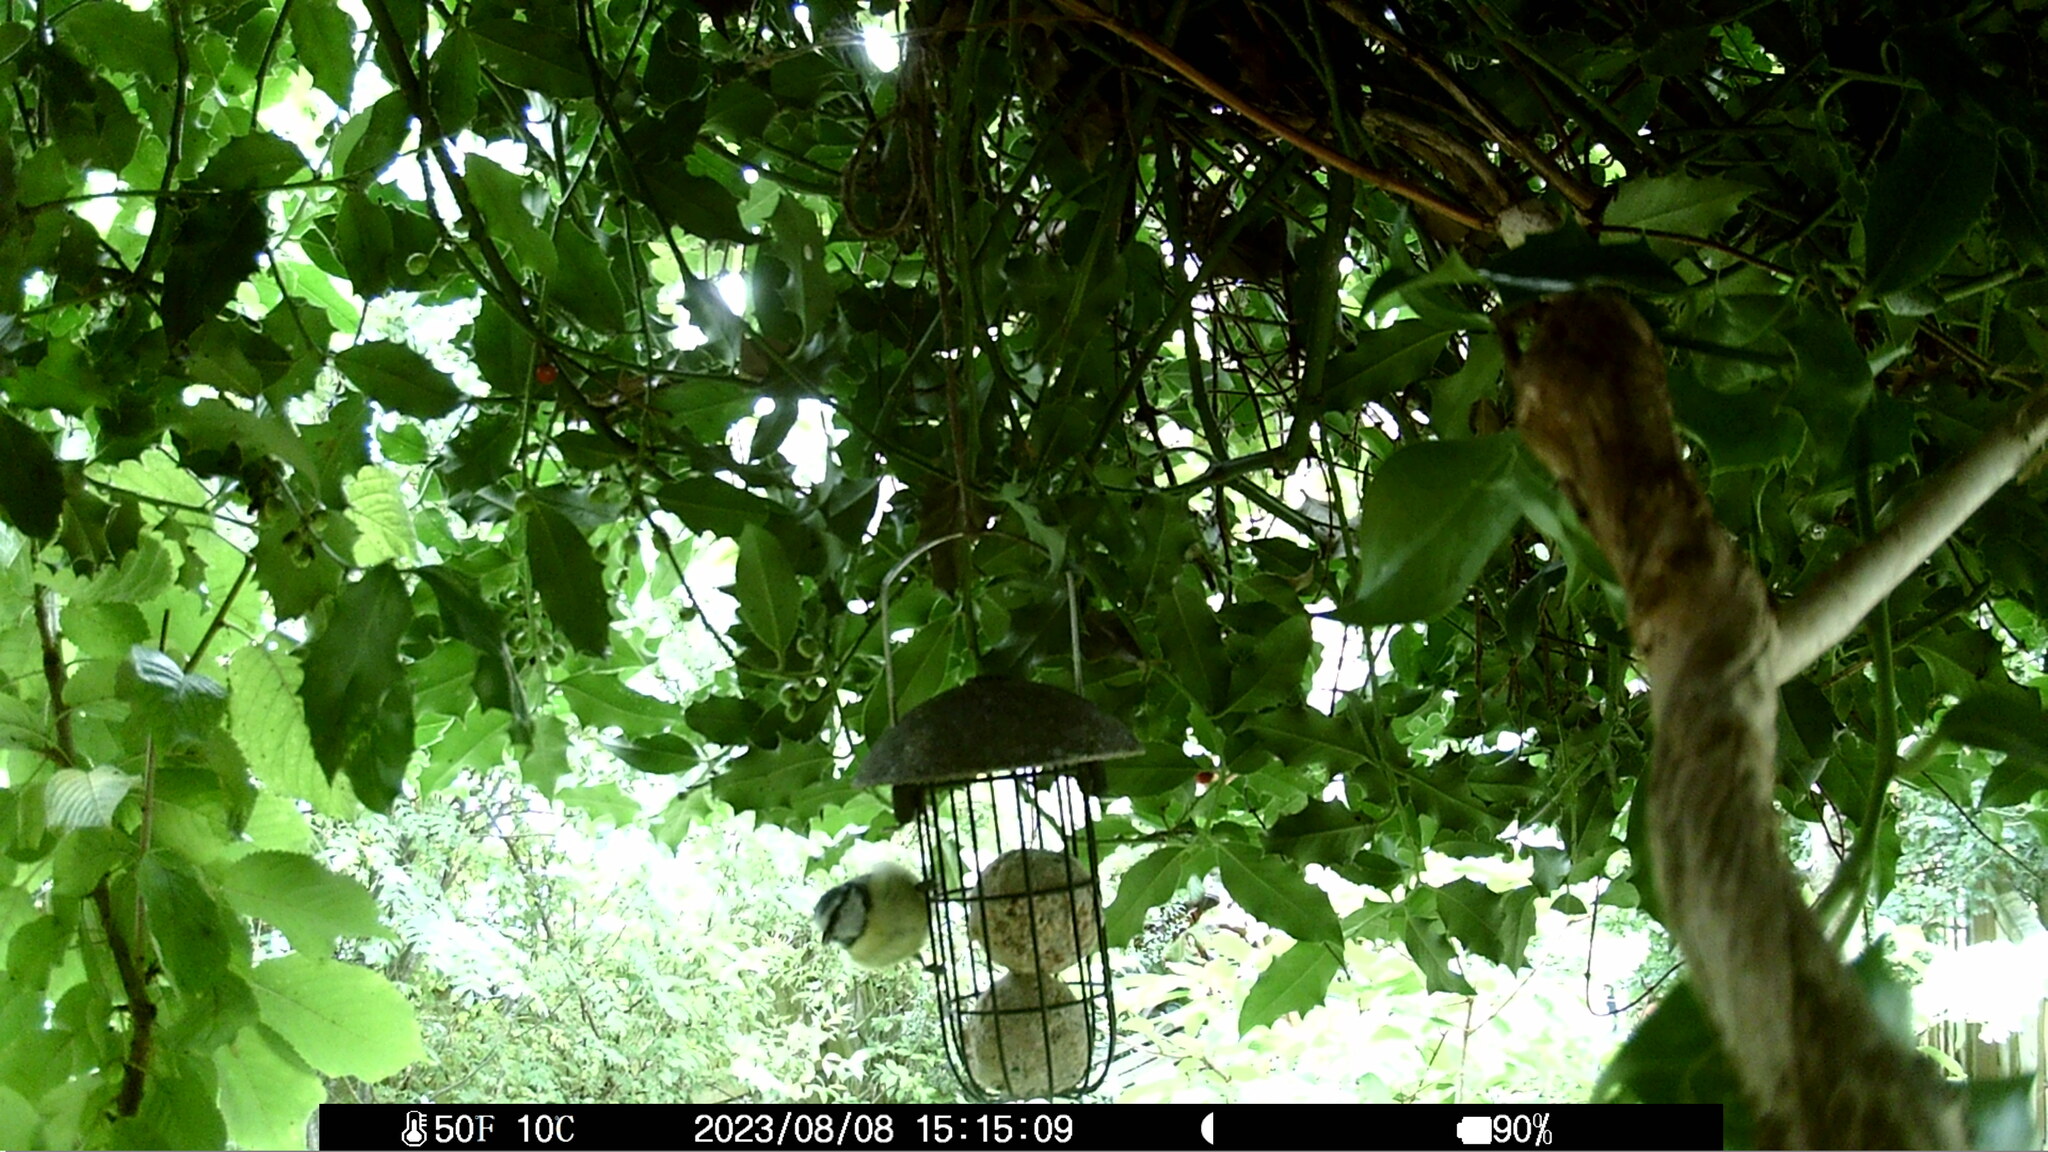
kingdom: Animalia
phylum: Chordata
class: Aves
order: Passeriformes
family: Paridae
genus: Cyanistes
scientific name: Cyanistes caeruleus
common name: Eurasian blue tit
